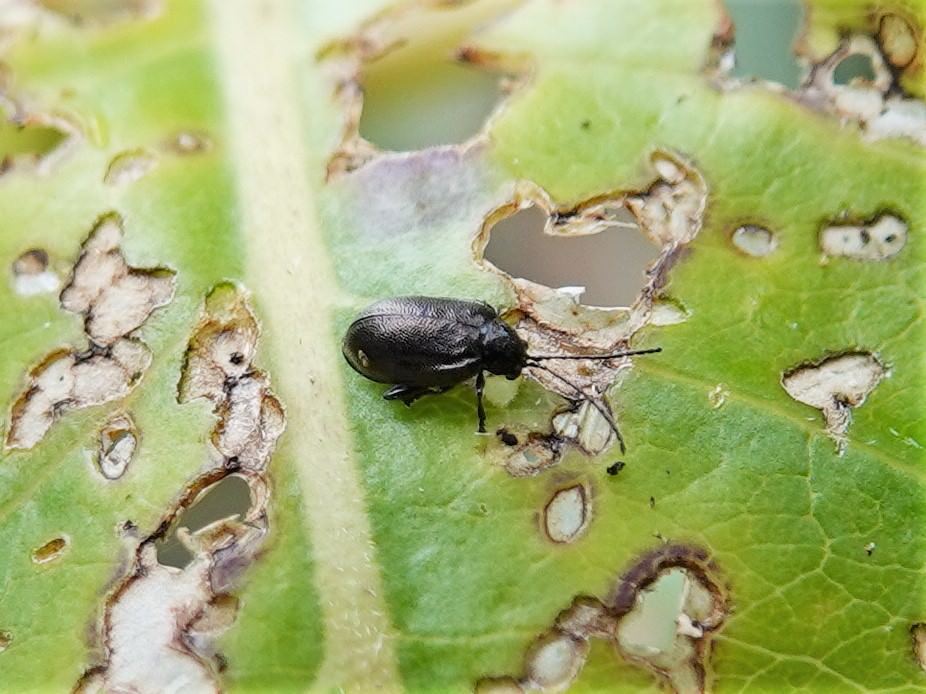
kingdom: Animalia
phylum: Arthropoda
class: Insecta
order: Coleoptera
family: Chrysomelidae
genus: Pleuraltica
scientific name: Pleuraltica cyanea
